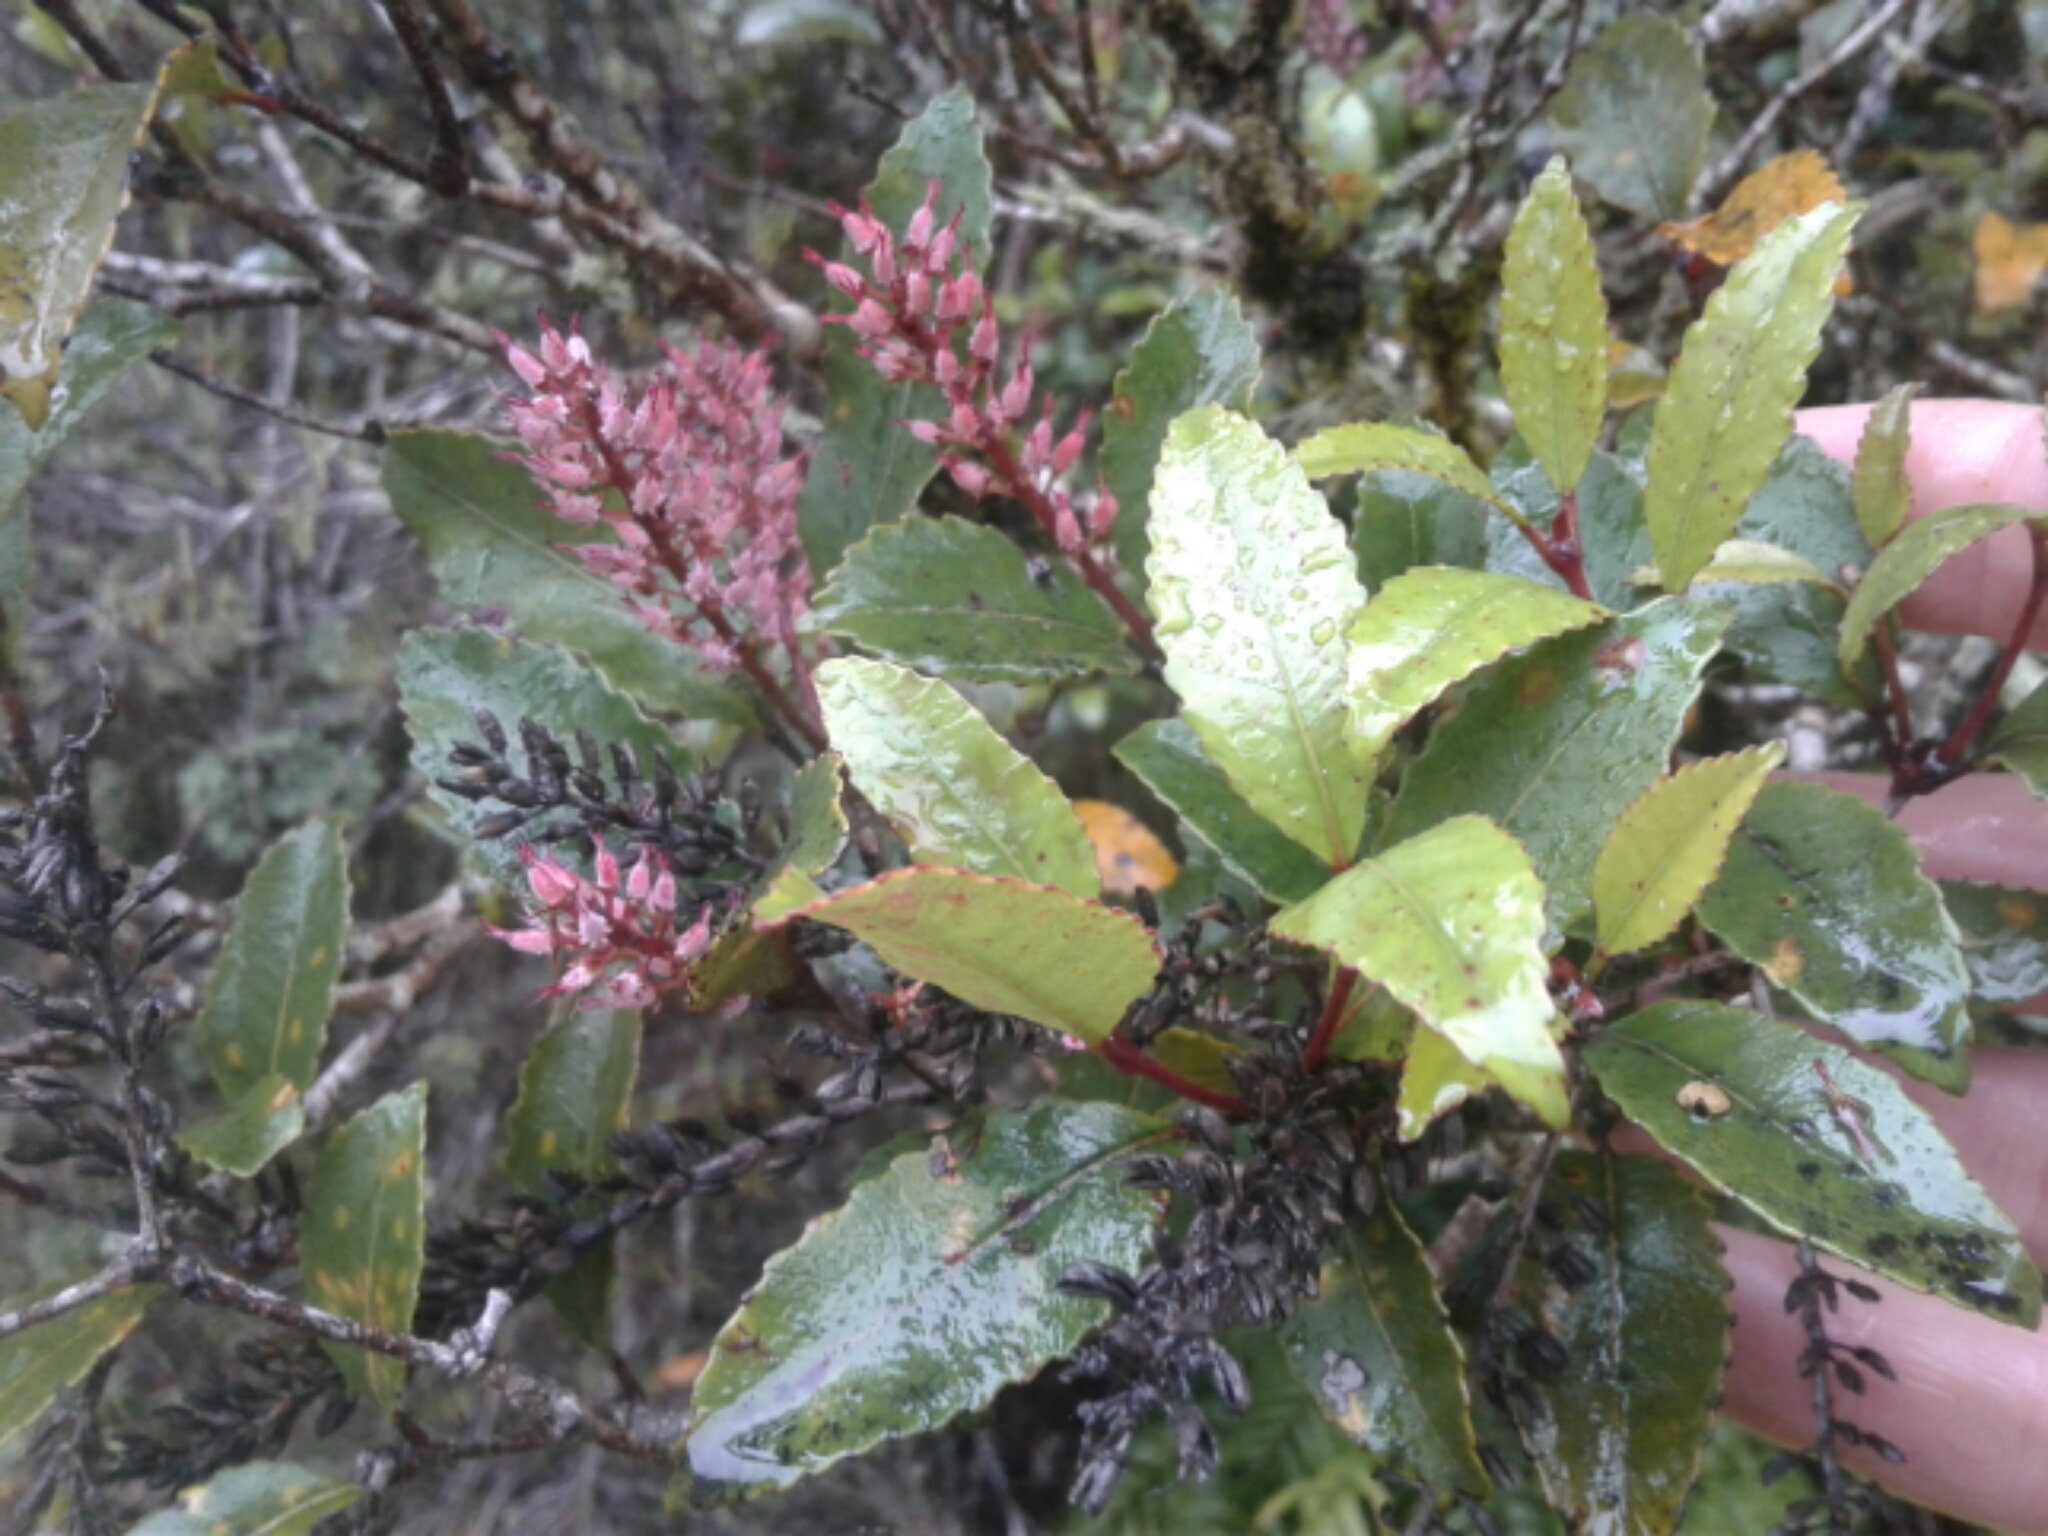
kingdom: Plantae
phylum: Tracheophyta
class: Magnoliopsida
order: Oxalidales
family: Cunoniaceae
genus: Pterophylla
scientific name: Pterophylla racemosa
